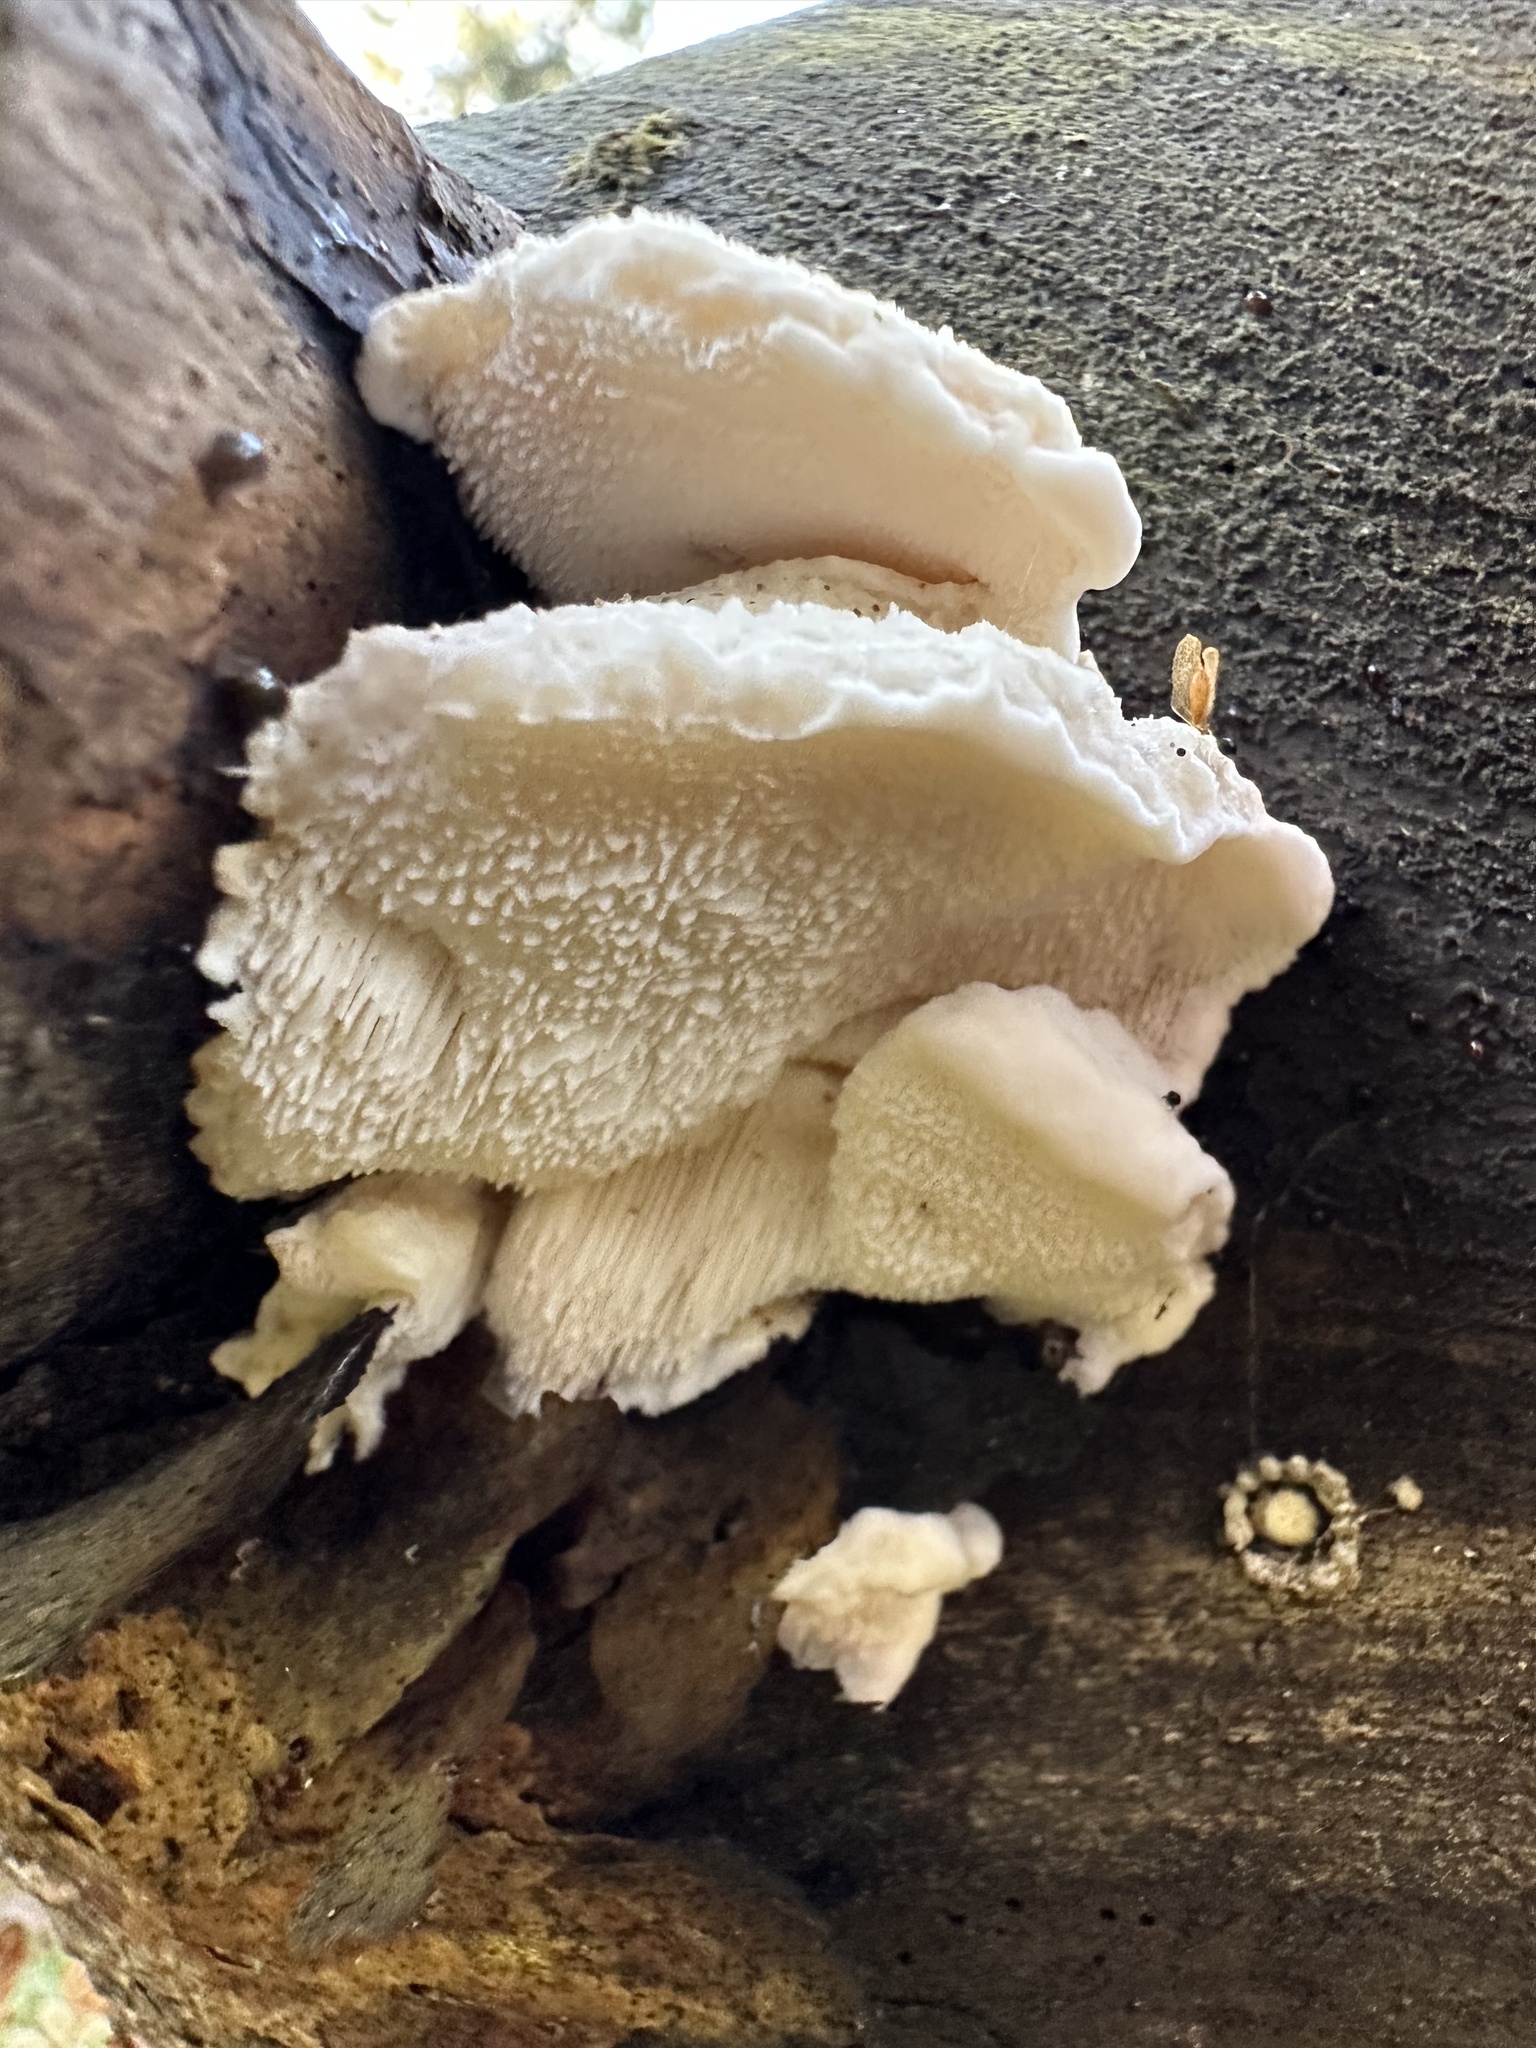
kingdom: Fungi
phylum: Basidiomycota
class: Agaricomycetes
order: Russulales
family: Hericiaceae
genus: Hericium
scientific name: Hericium cirrhatum
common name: Tiered tooth
